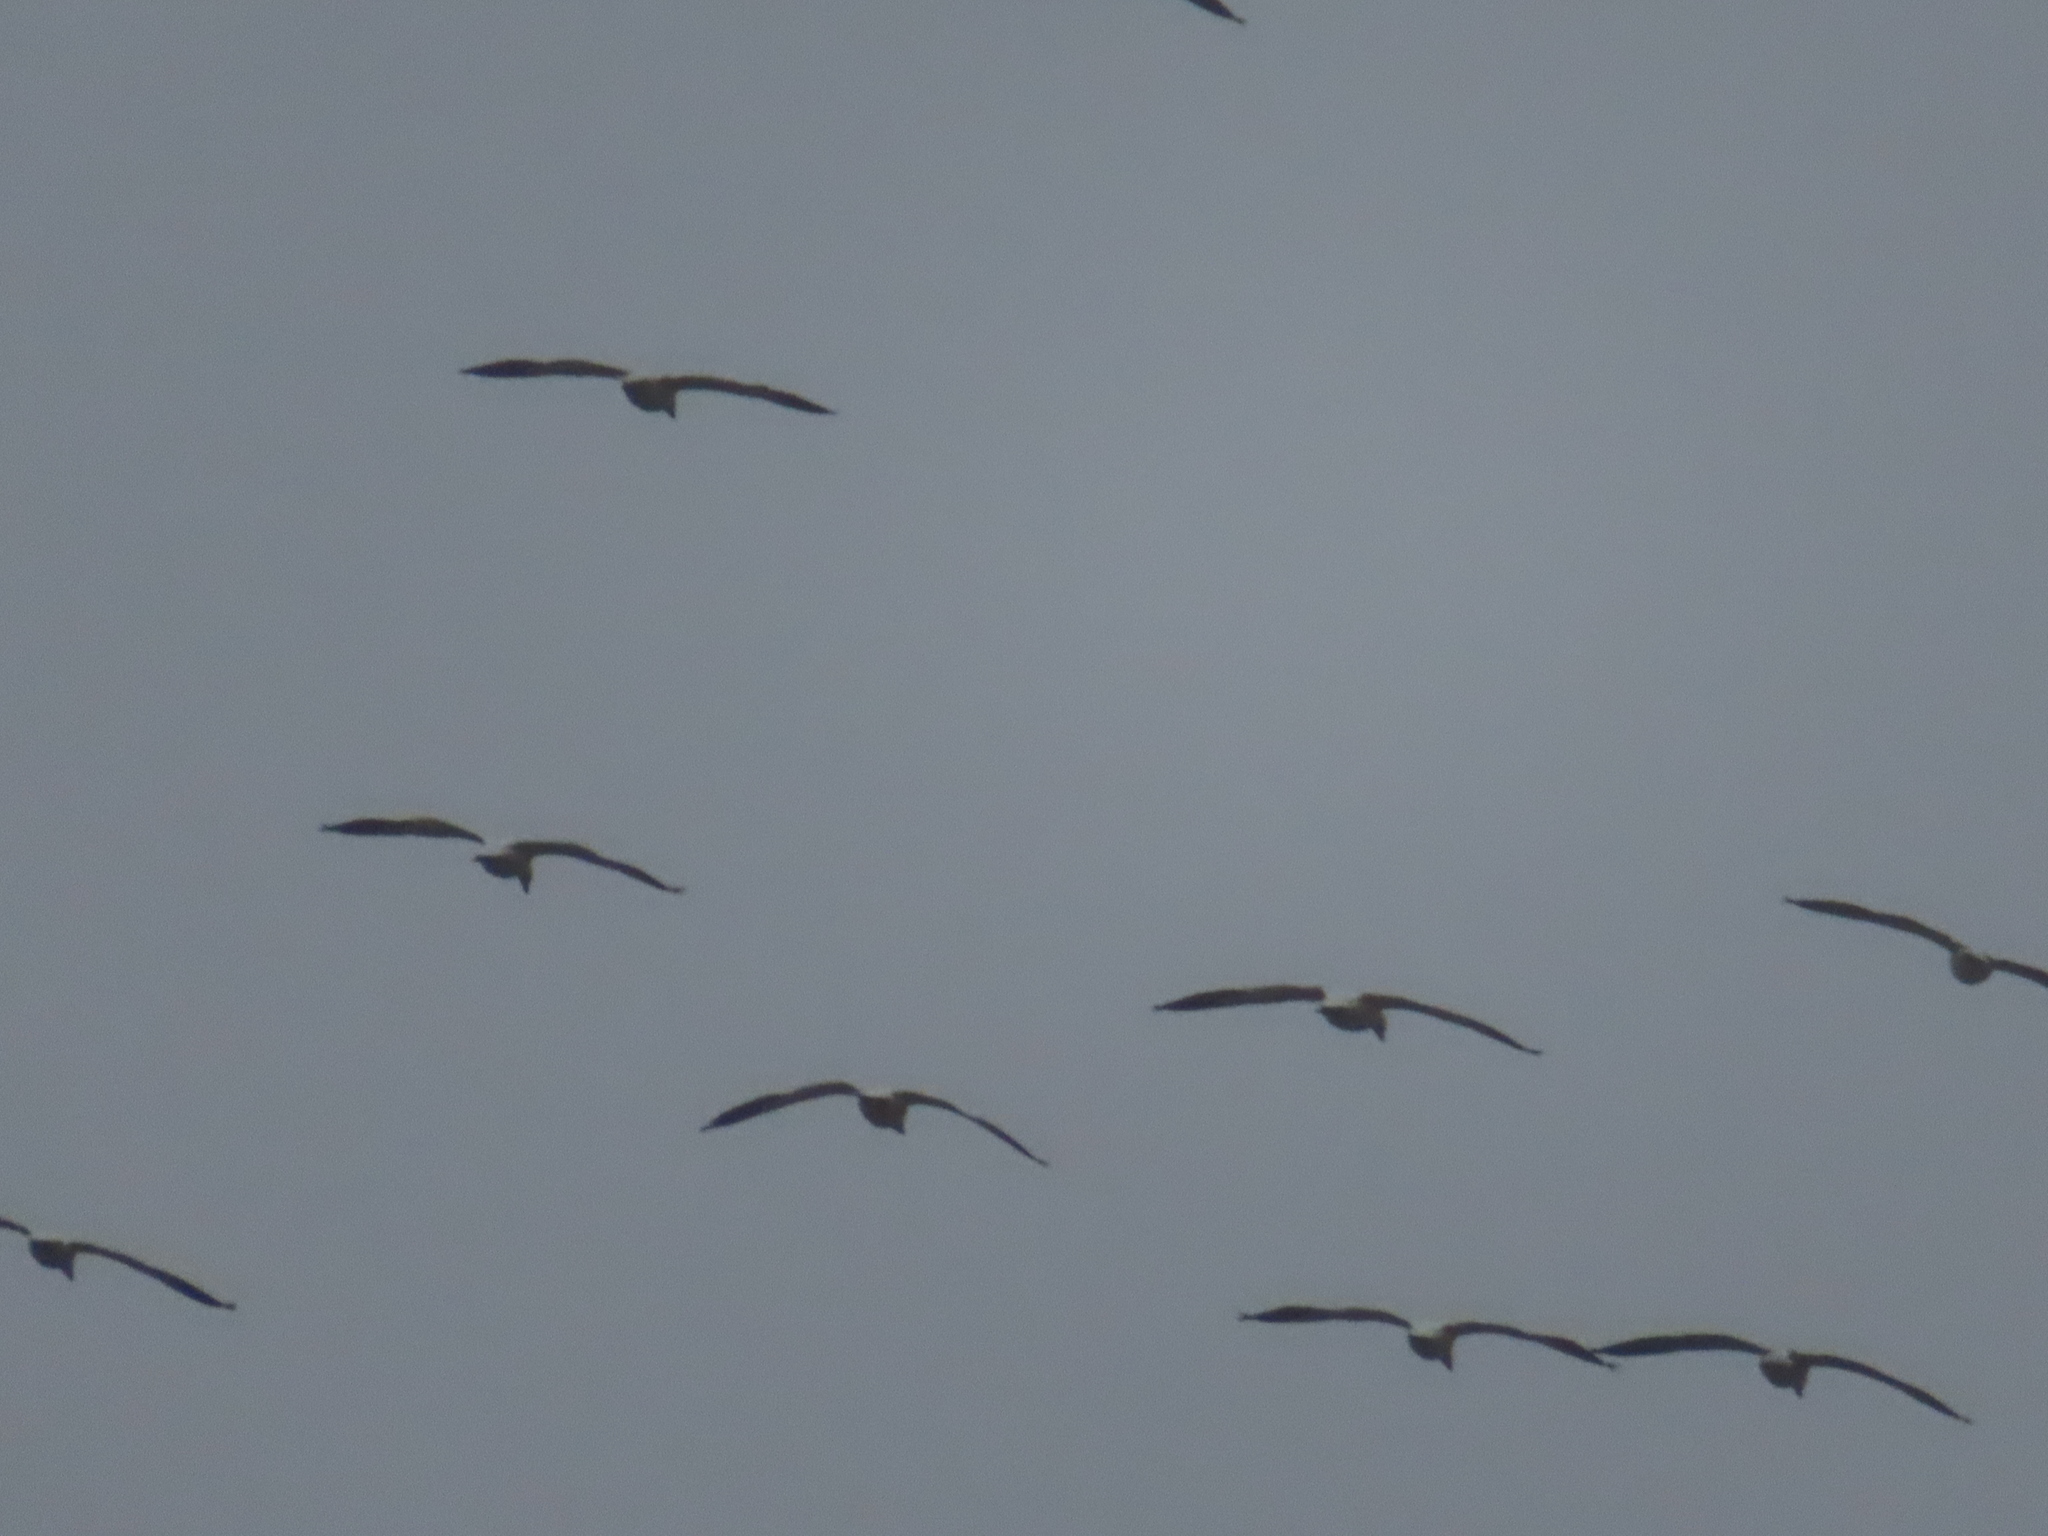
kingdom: Animalia
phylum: Chordata
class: Aves
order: Anseriformes
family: Anatidae
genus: Anser
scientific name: Anser caerulescens
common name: Snow goose
